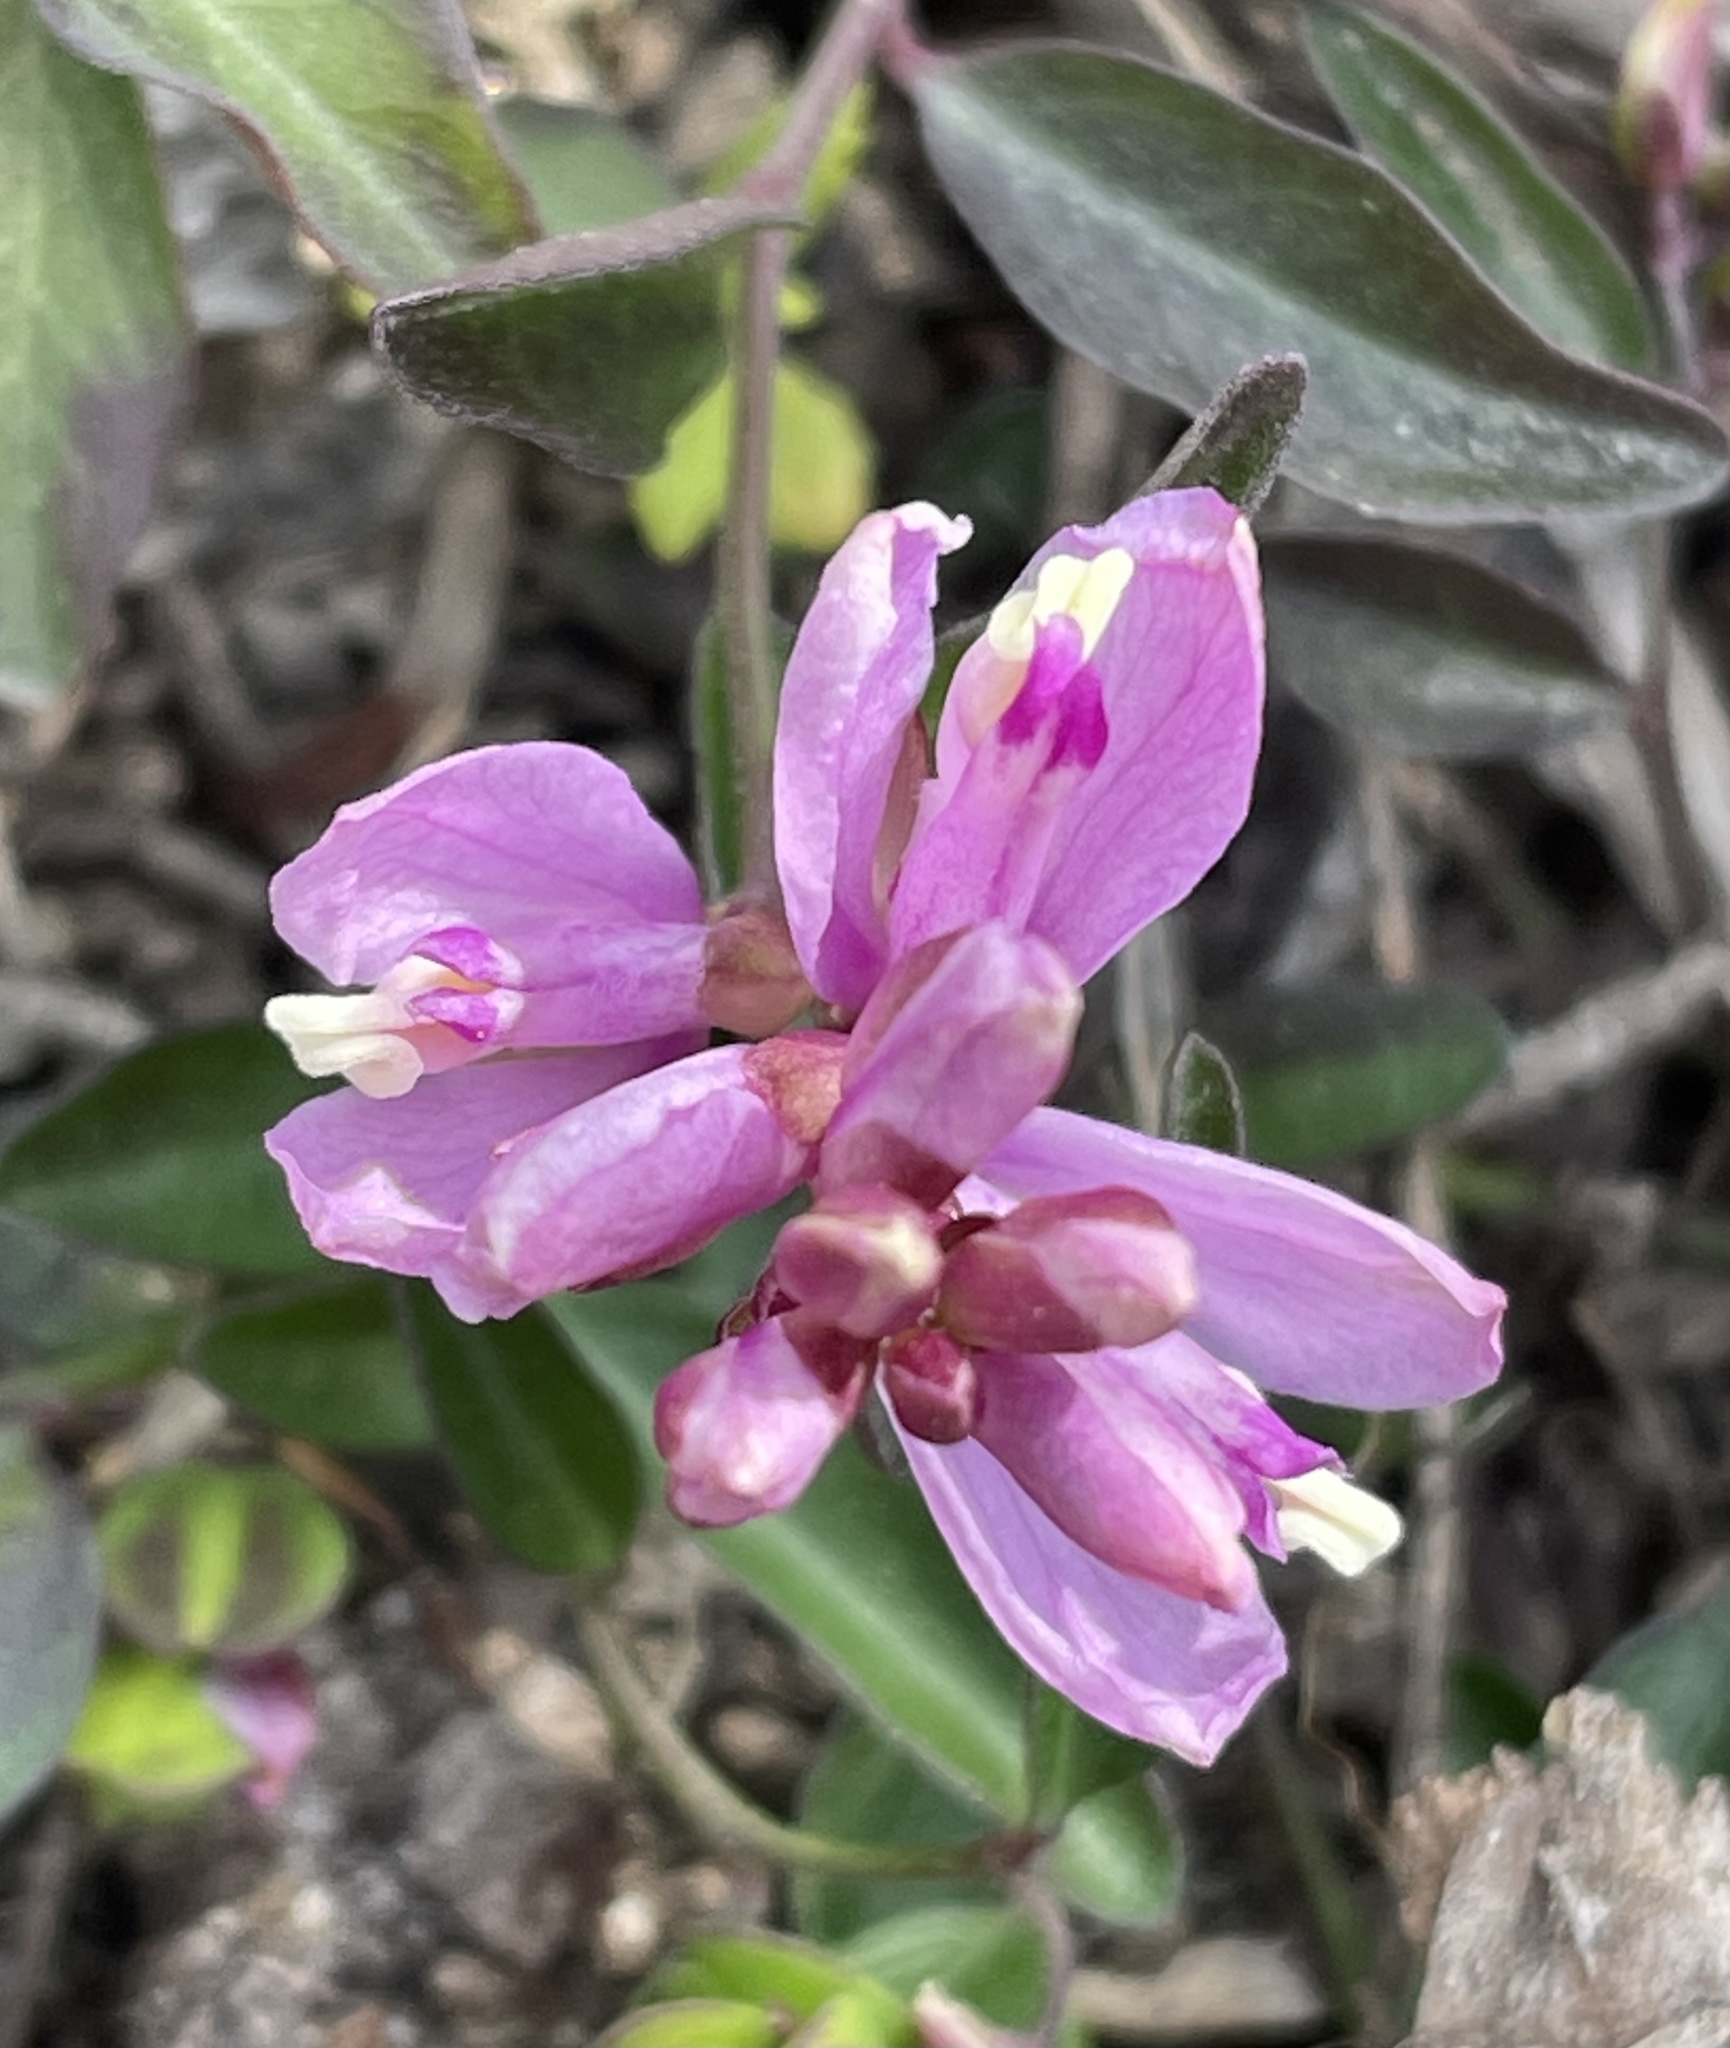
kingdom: Plantae
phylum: Tracheophyta
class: Magnoliopsida
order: Fabales
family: Polygalaceae
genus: Rhinotropis
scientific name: Rhinotropis californica
